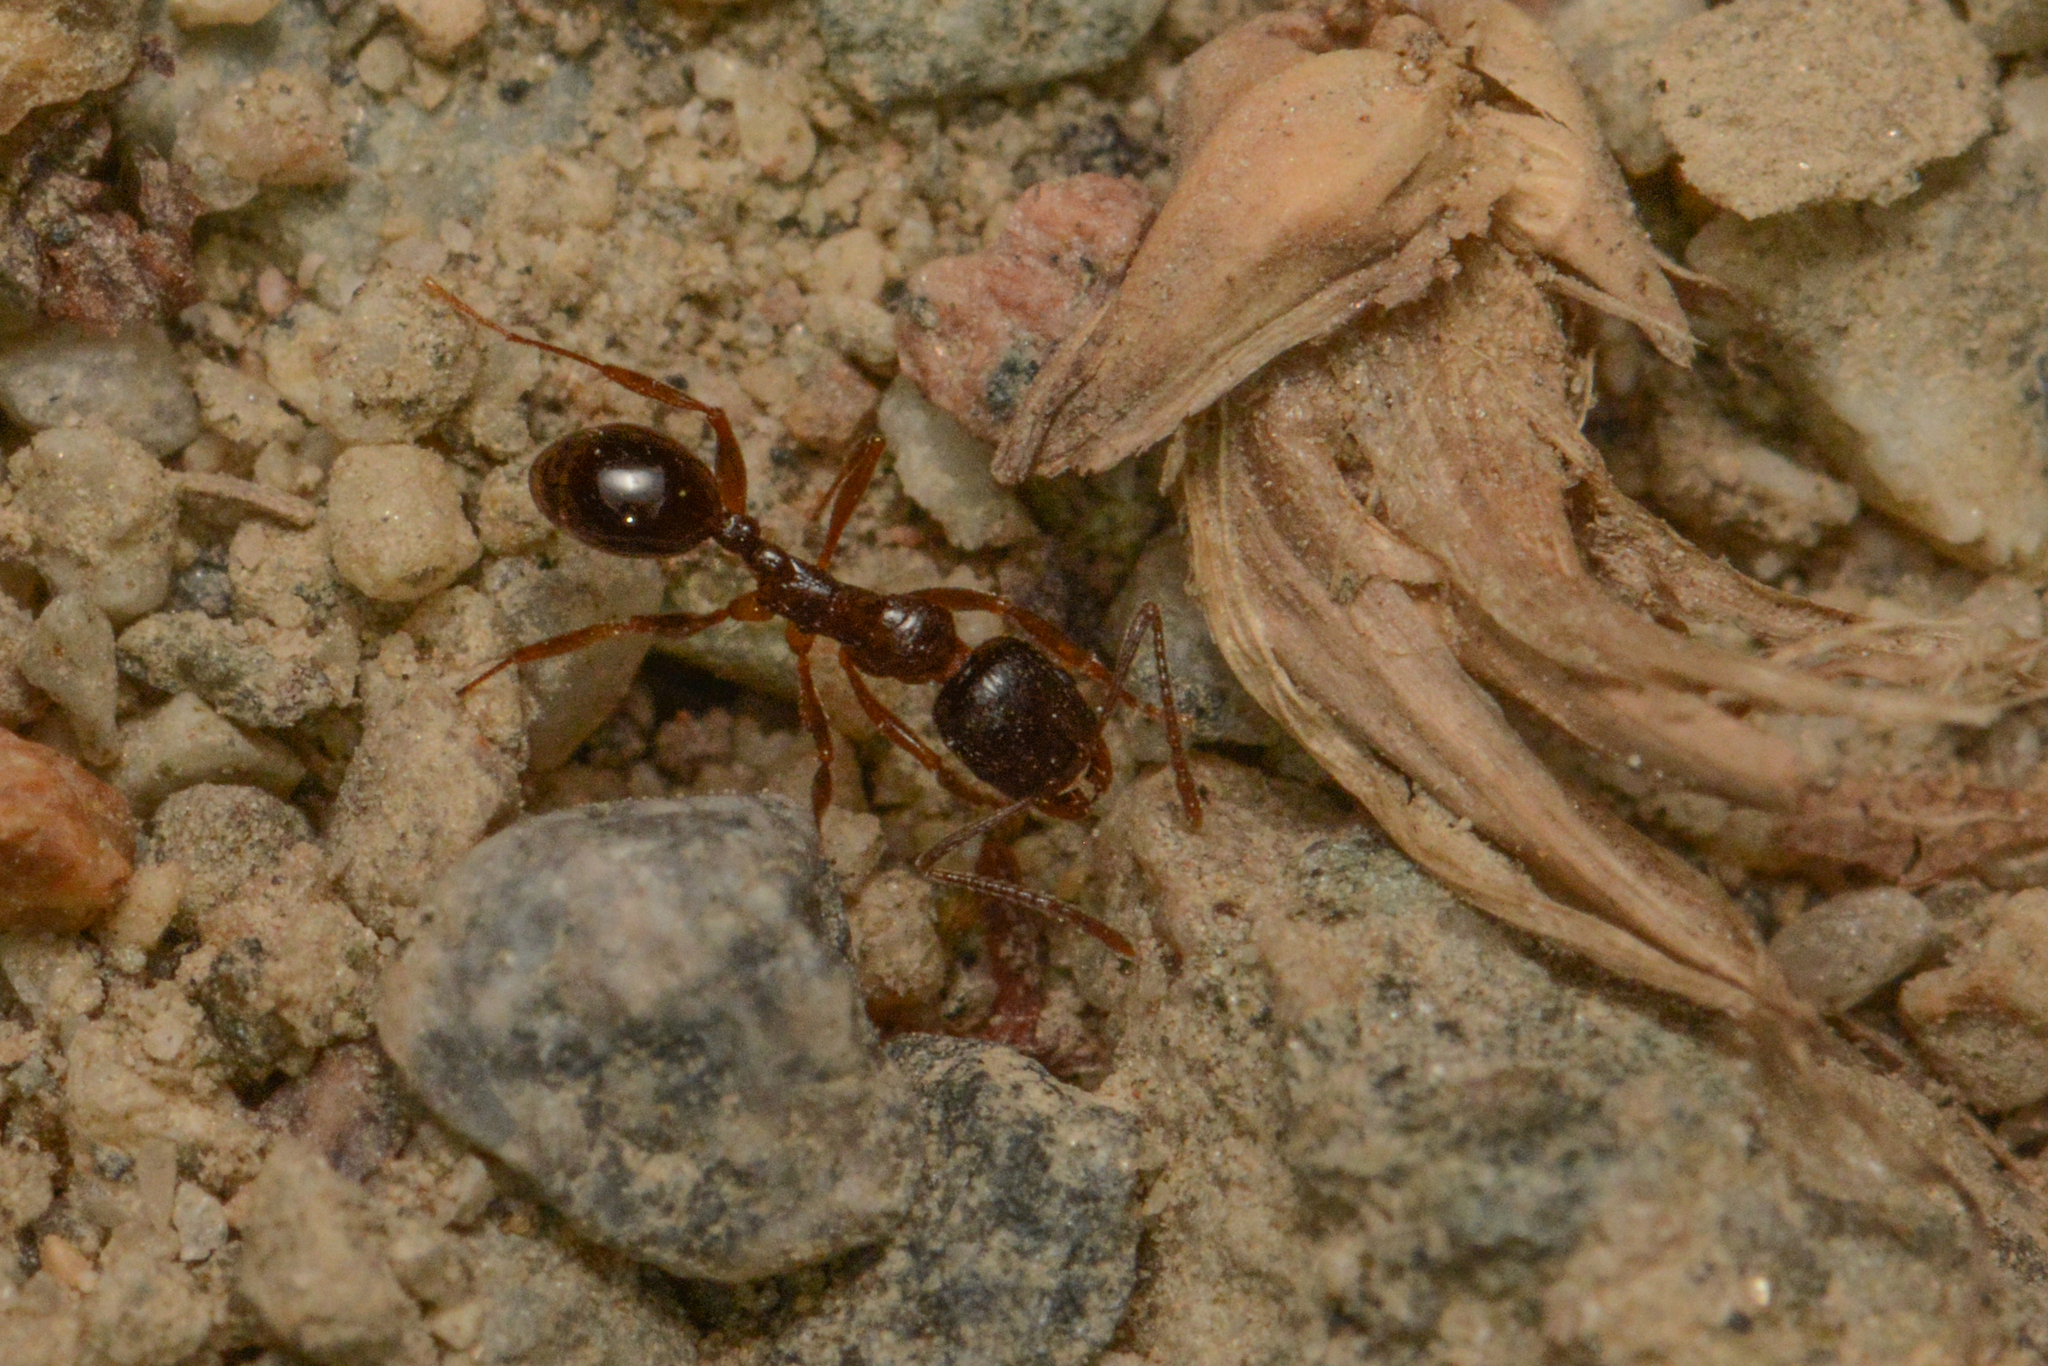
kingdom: Animalia
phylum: Arthropoda
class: Insecta
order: Hymenoptera
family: Formicidae
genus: Aphaenogaster
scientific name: Aphaenogaster occidentalis
